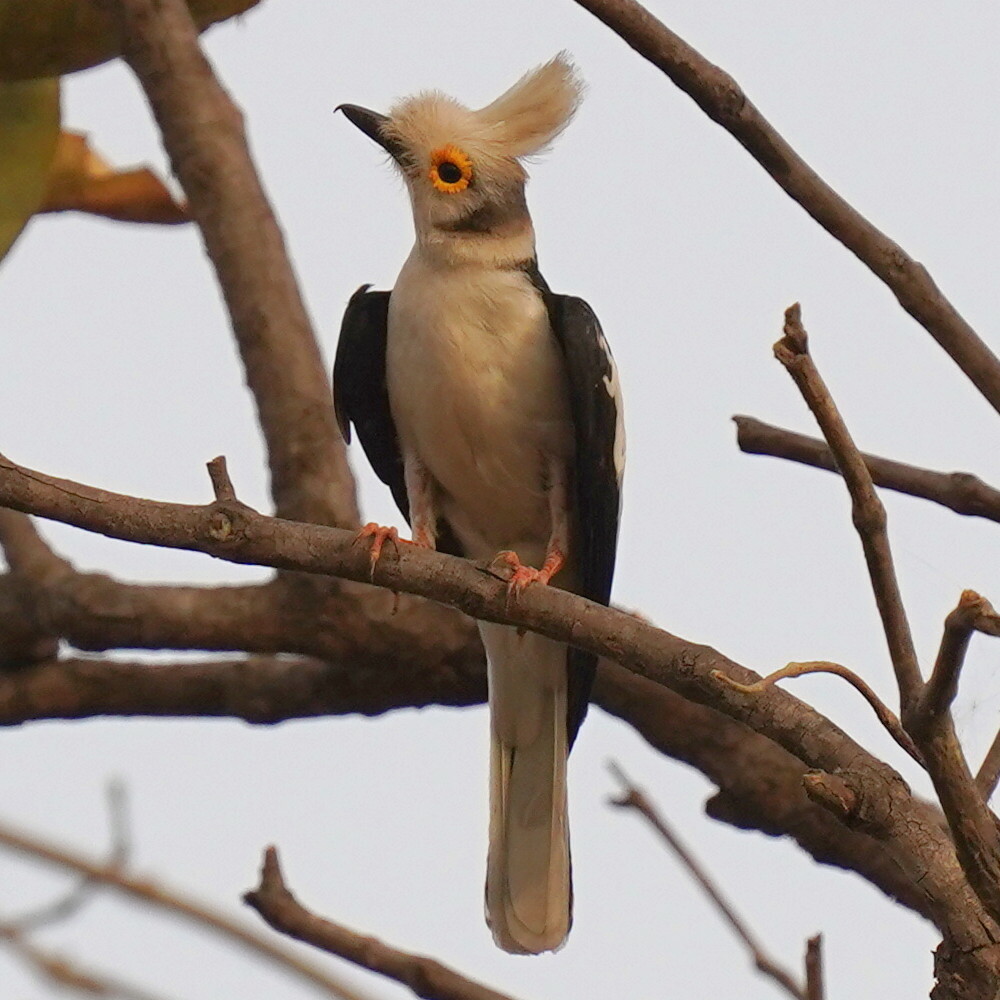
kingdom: Animalia
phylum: Chordata
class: Aves
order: Passeriformes
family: Prionopidae
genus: Prionops
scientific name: Prionops plumatus
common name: White-crested helmetshrike
